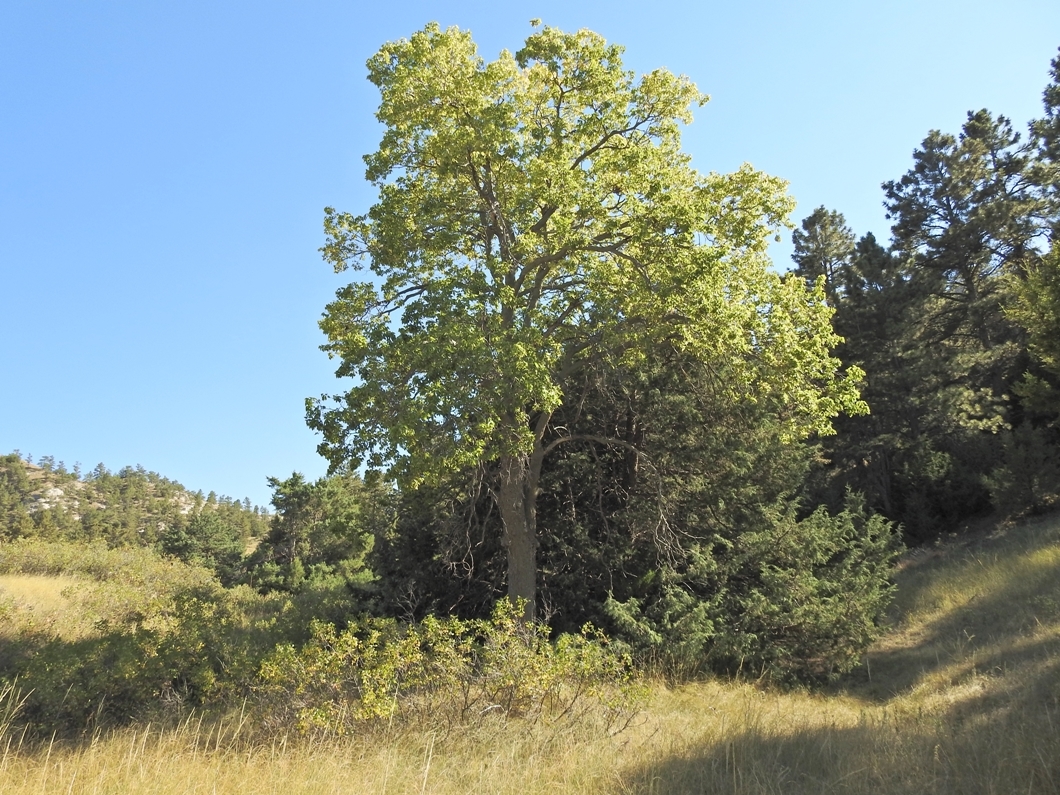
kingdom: Plantae
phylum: Tracheophyta
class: Magnoliopsida
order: Rosales
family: Cannabaceae
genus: Celtis
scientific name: Celtis occidentalis
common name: Common hackberry
